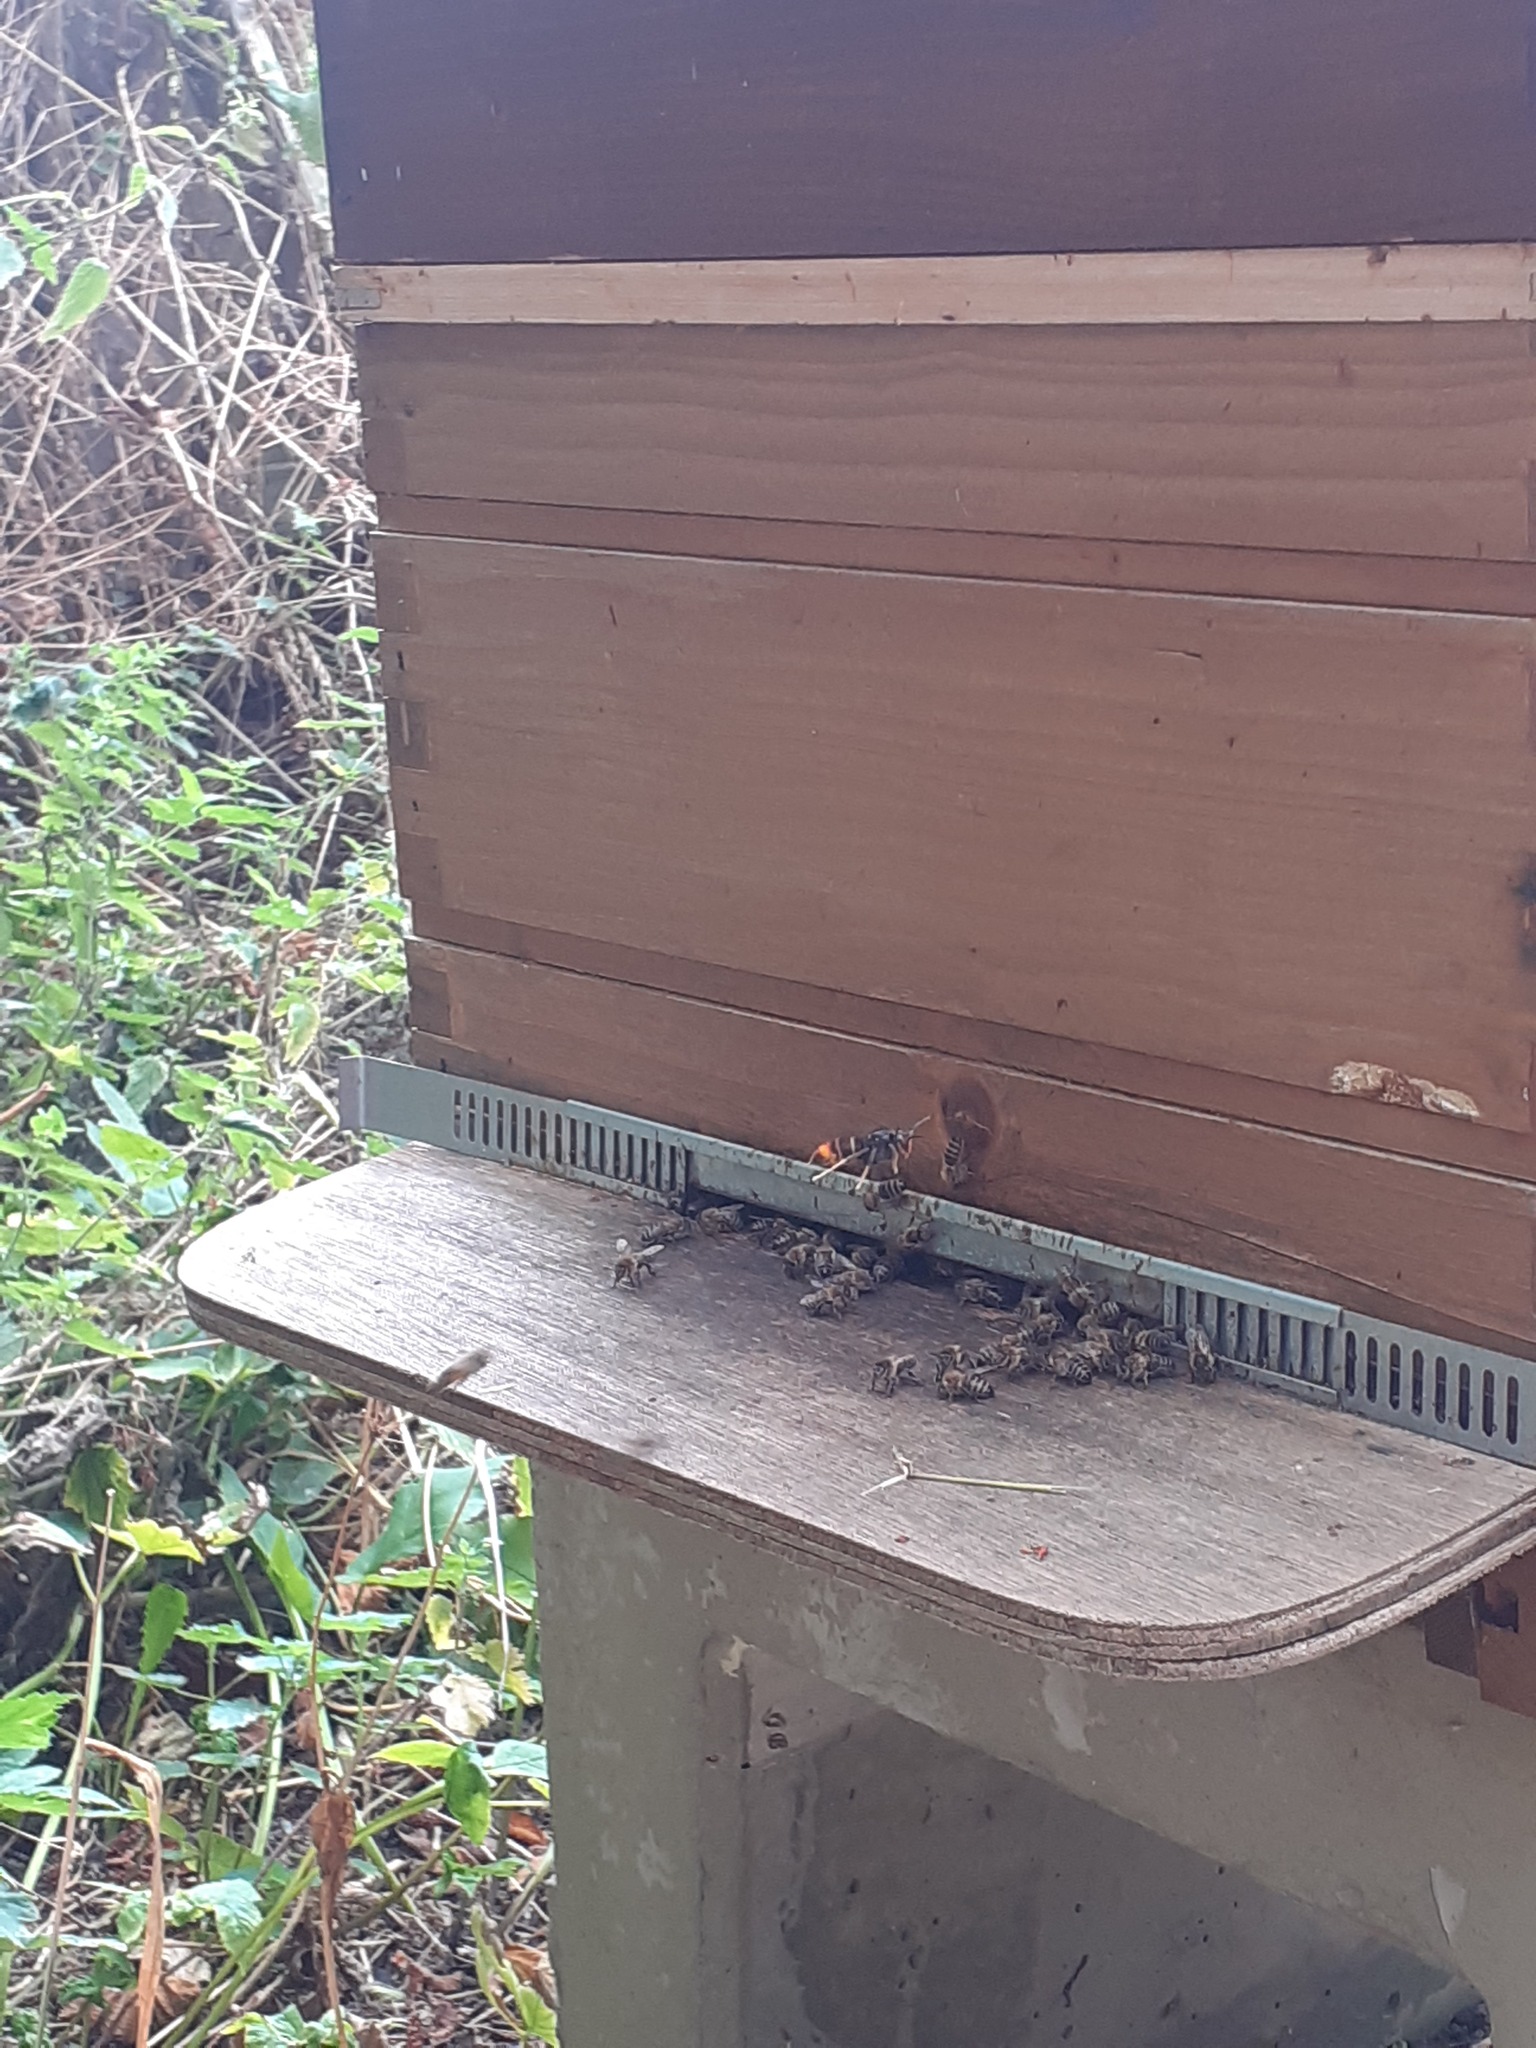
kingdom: Animalia
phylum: Arthropoda
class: Insecta
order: Hymenoptera
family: Vespidae
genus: Vespa
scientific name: Vespa velutina
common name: Asian hornet
